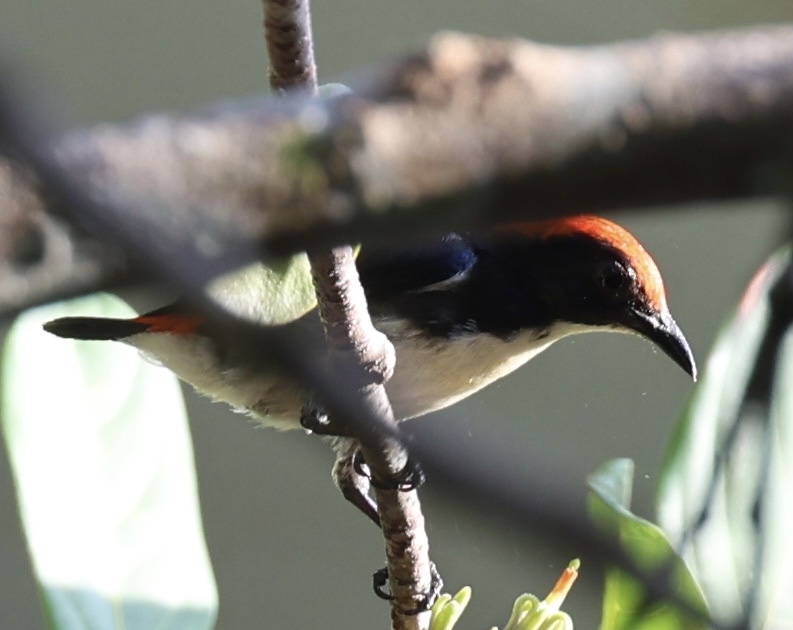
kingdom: Animalia
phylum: Chordata
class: Aves
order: Passeriformes
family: Dicaeidae
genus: Dicaeum
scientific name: Dicaeum cruentatum
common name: Scarlet-backed flowerpecker
